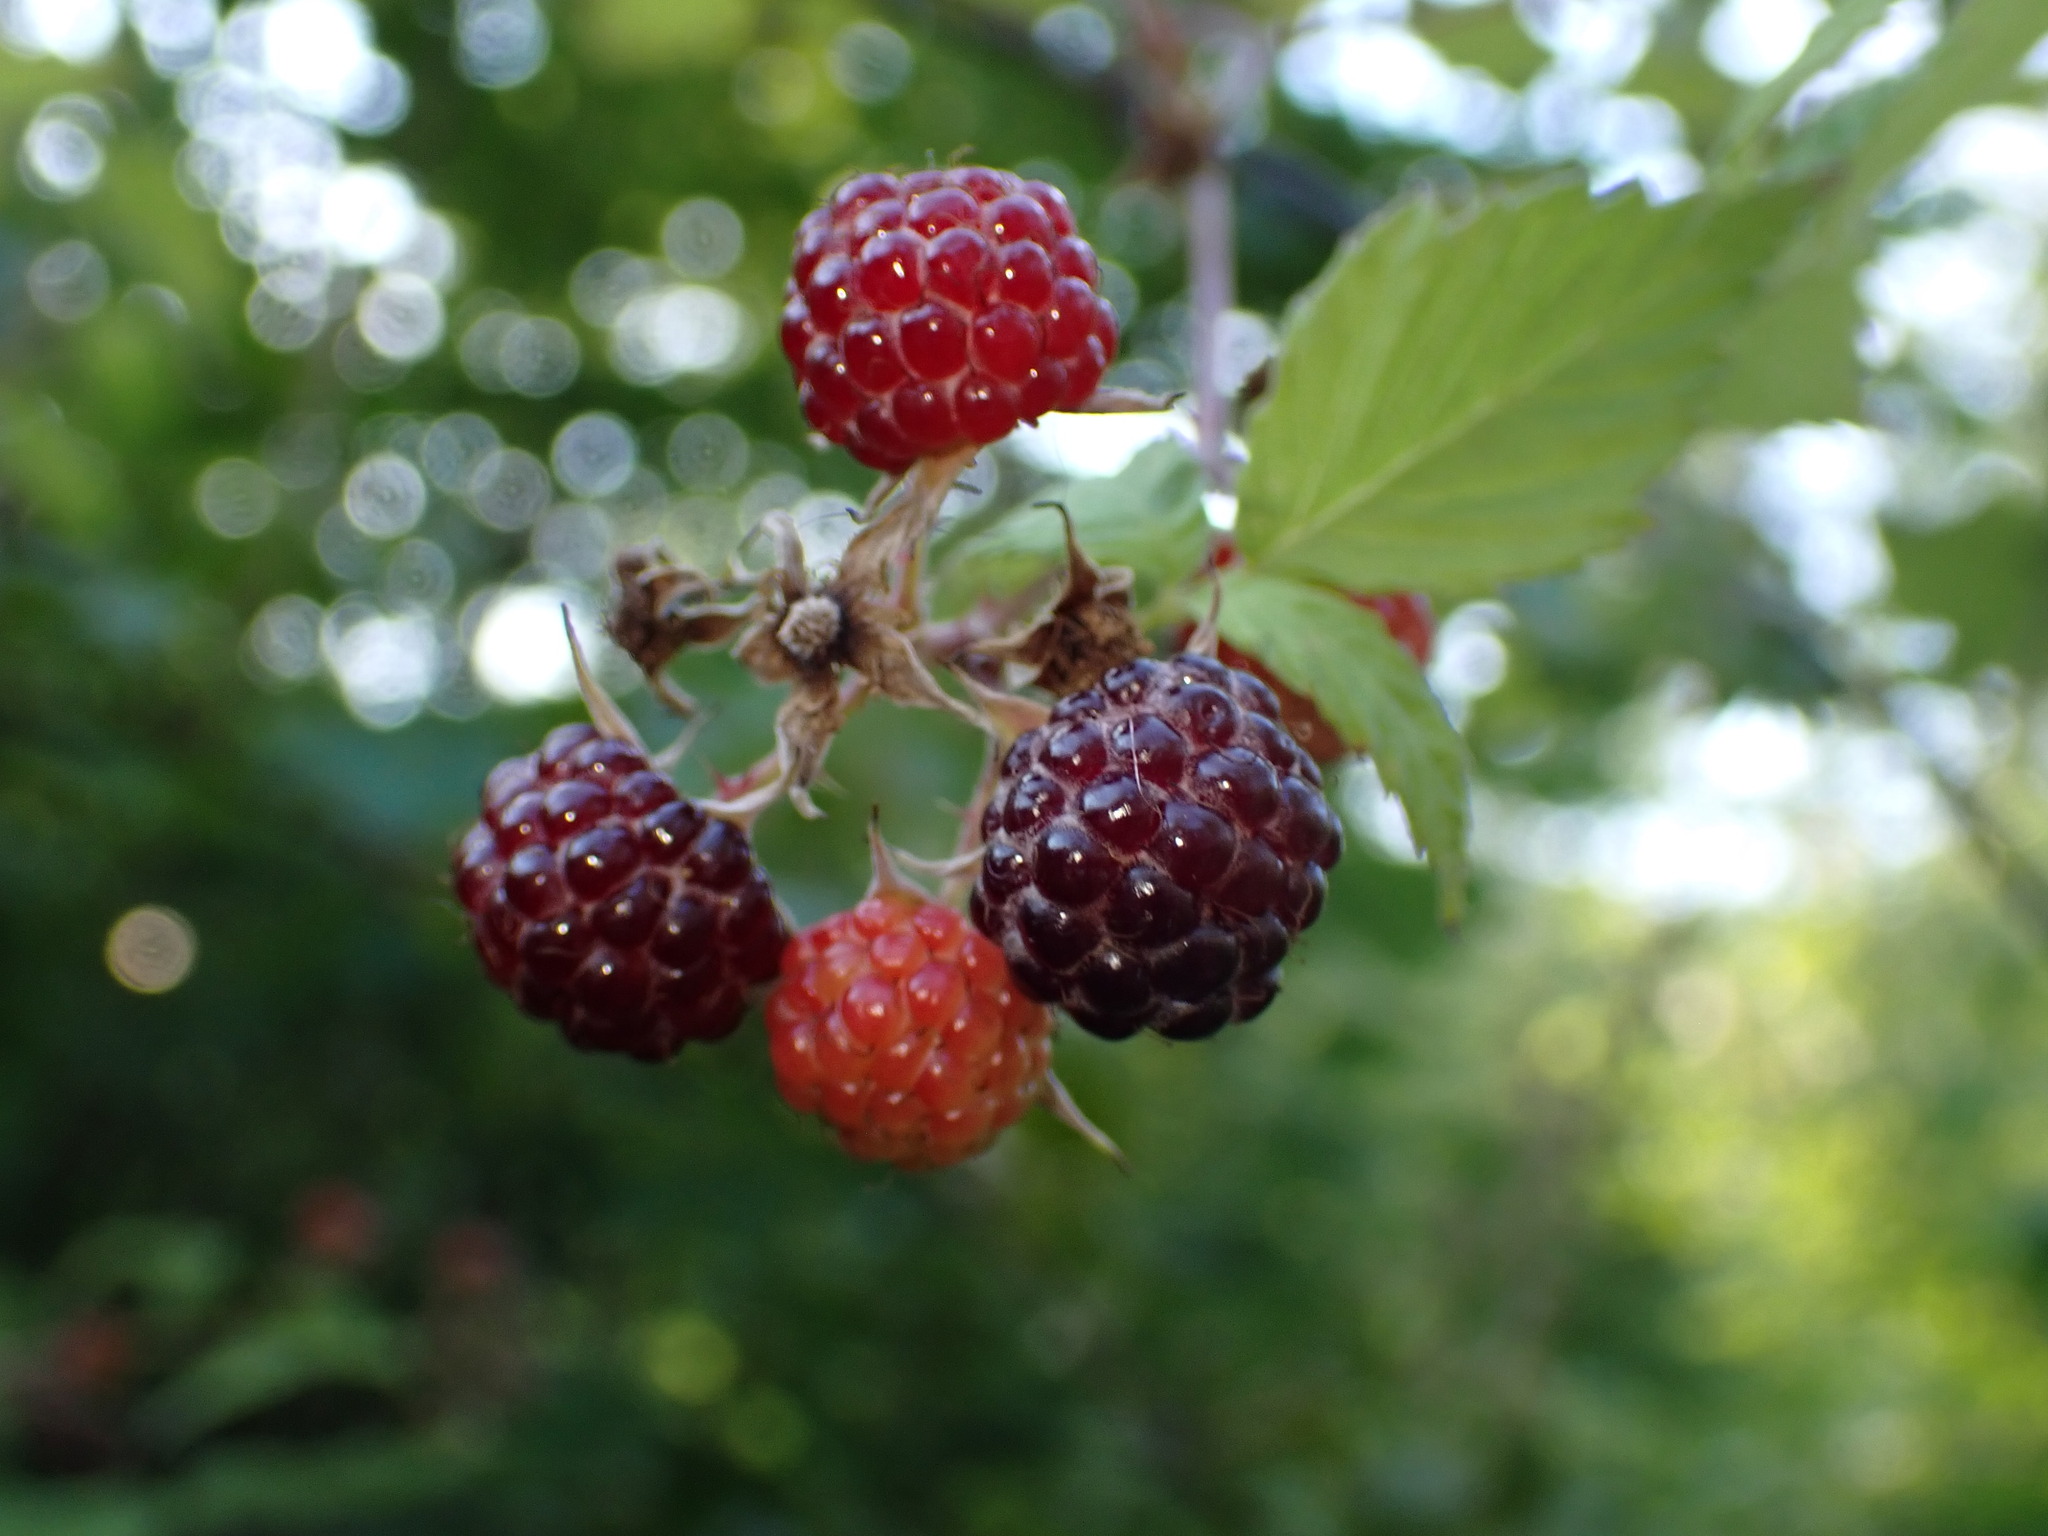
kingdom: Plantae
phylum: Tracheophyta
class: Magnoliopsida
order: Rosales
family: Rosaceae
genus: Rubus
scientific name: Rubus occidentalis
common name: Black raspberry
